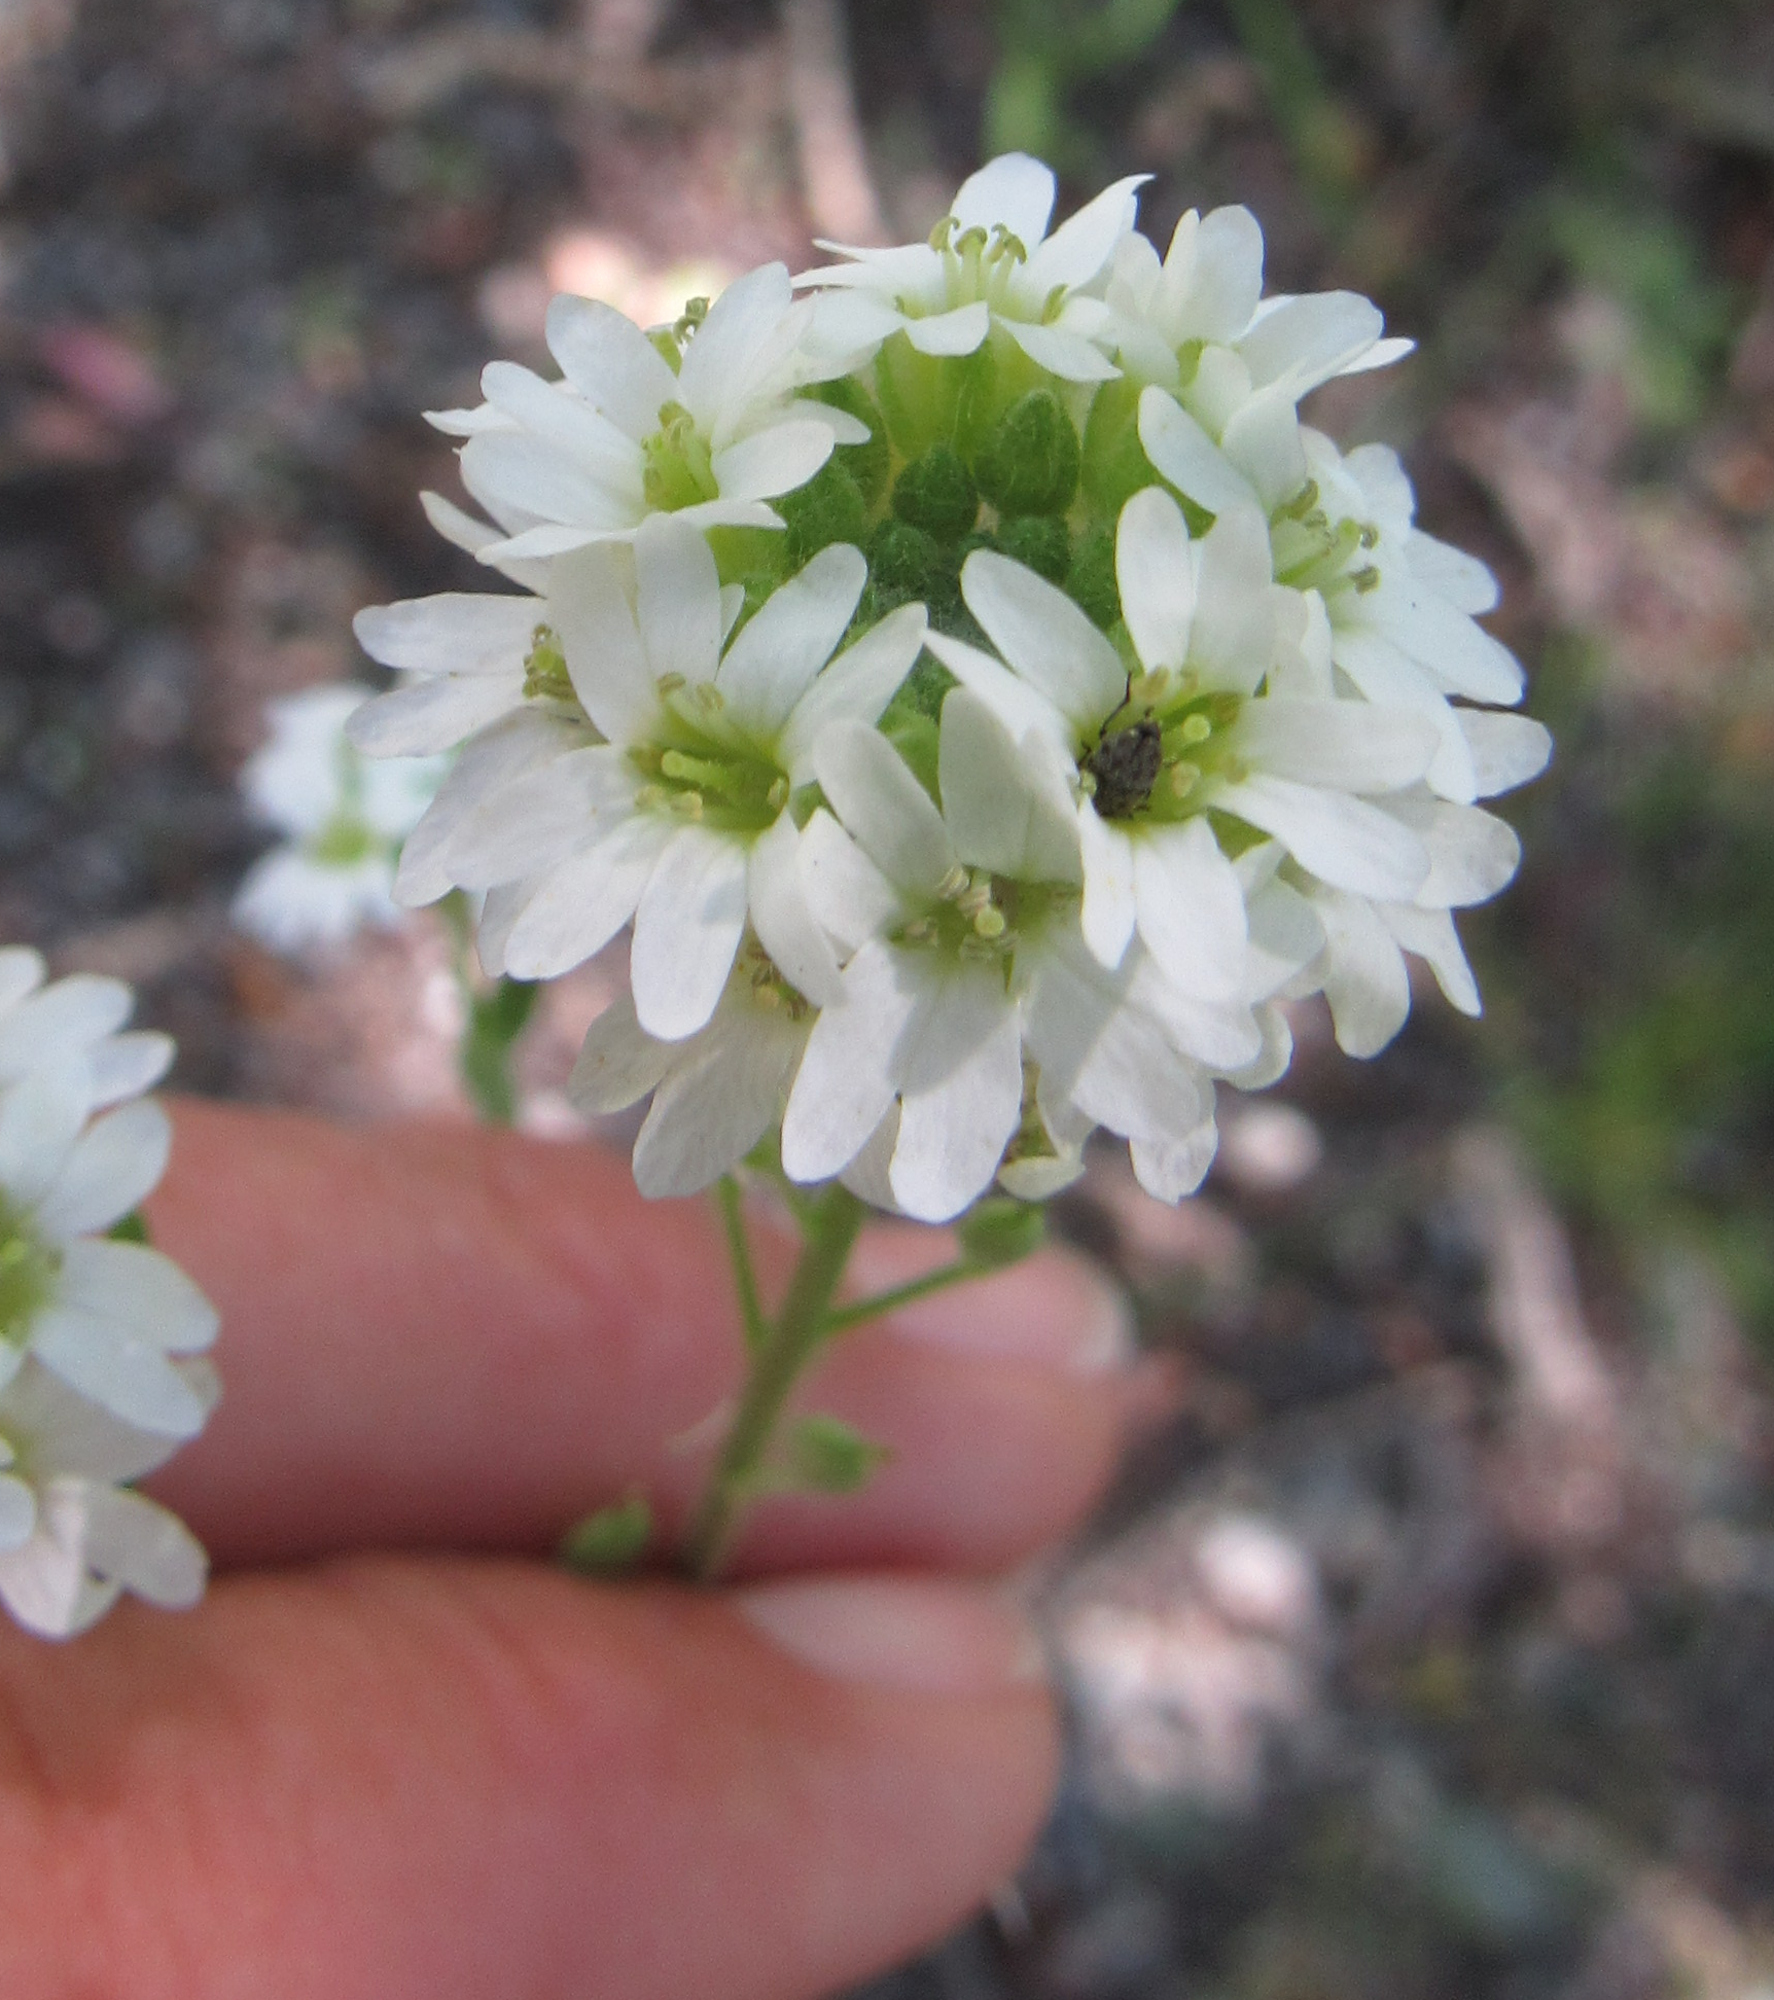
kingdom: Plantae
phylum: Tracheophyta
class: Magnoliopsida
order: Brassicales
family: Brassicaceae
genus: Berteroa
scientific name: Berteroa incana
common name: Hoary alison
